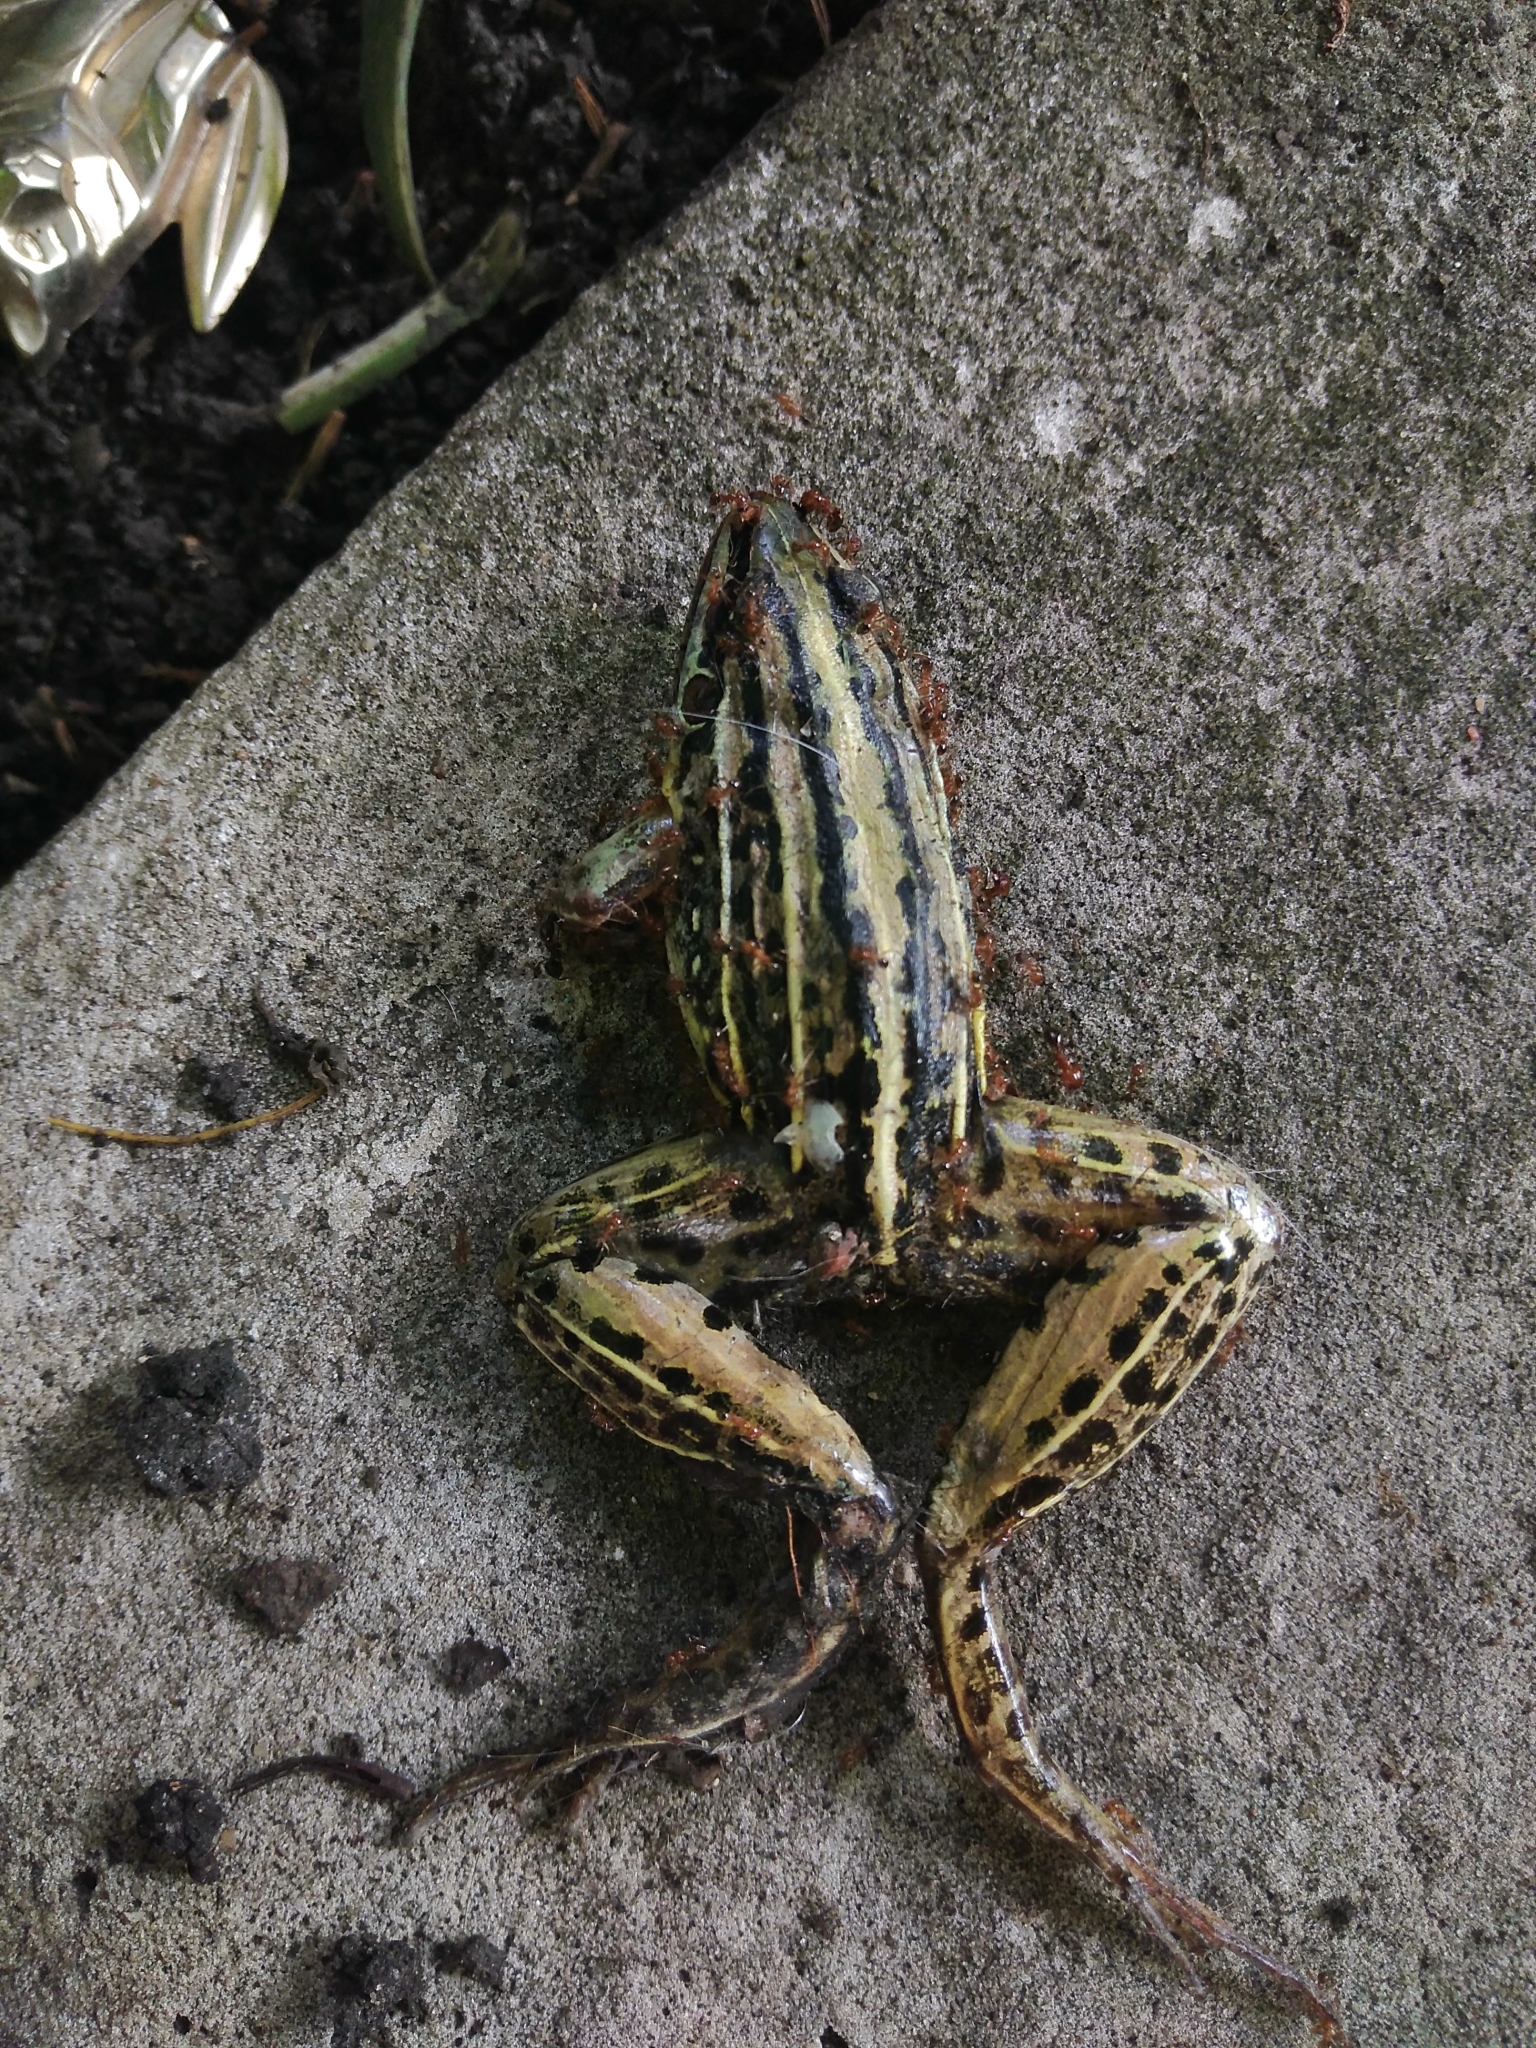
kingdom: Animalia
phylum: Chordata
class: Amphibia
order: Anura
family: Leptodactylidae
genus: Leptodactylus
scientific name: Leptodactylus gracilis
